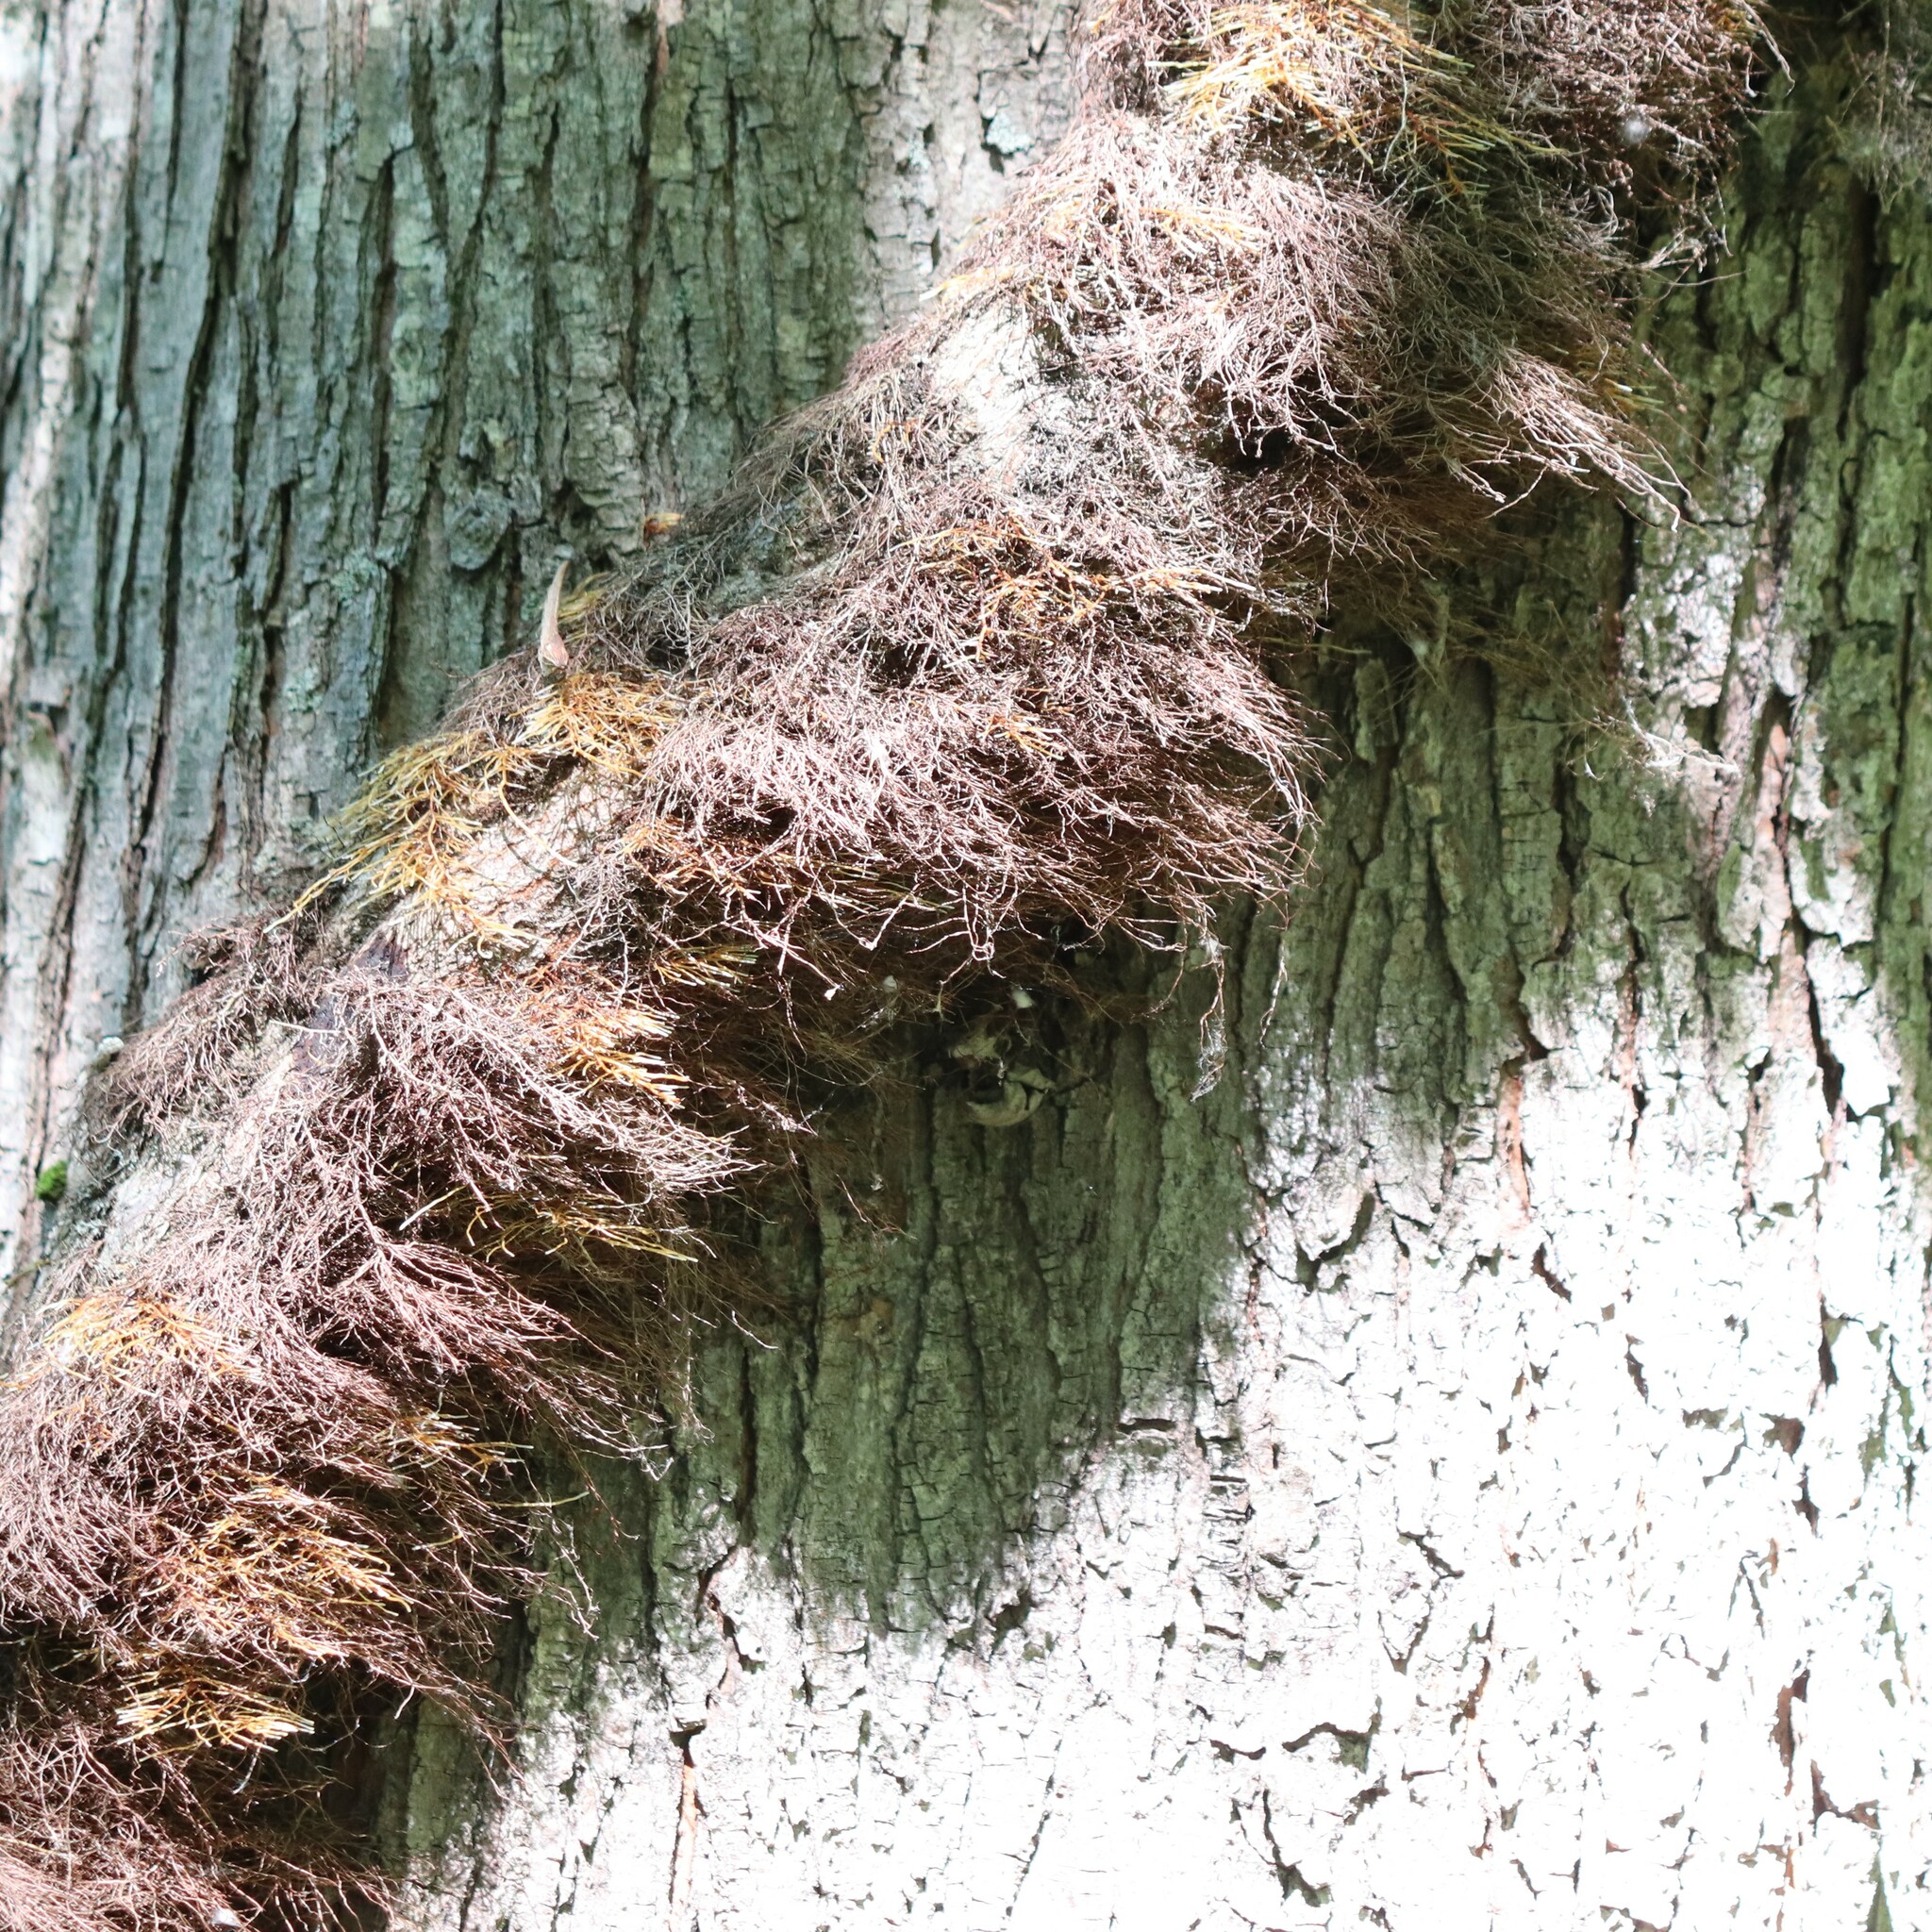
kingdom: Plantae
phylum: Tracheophyta
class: Magnoliopsida
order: Sapindales
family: Anacardiaceae
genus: Toxicodendron
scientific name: Toxicodendron radicans
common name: Poison ivy
